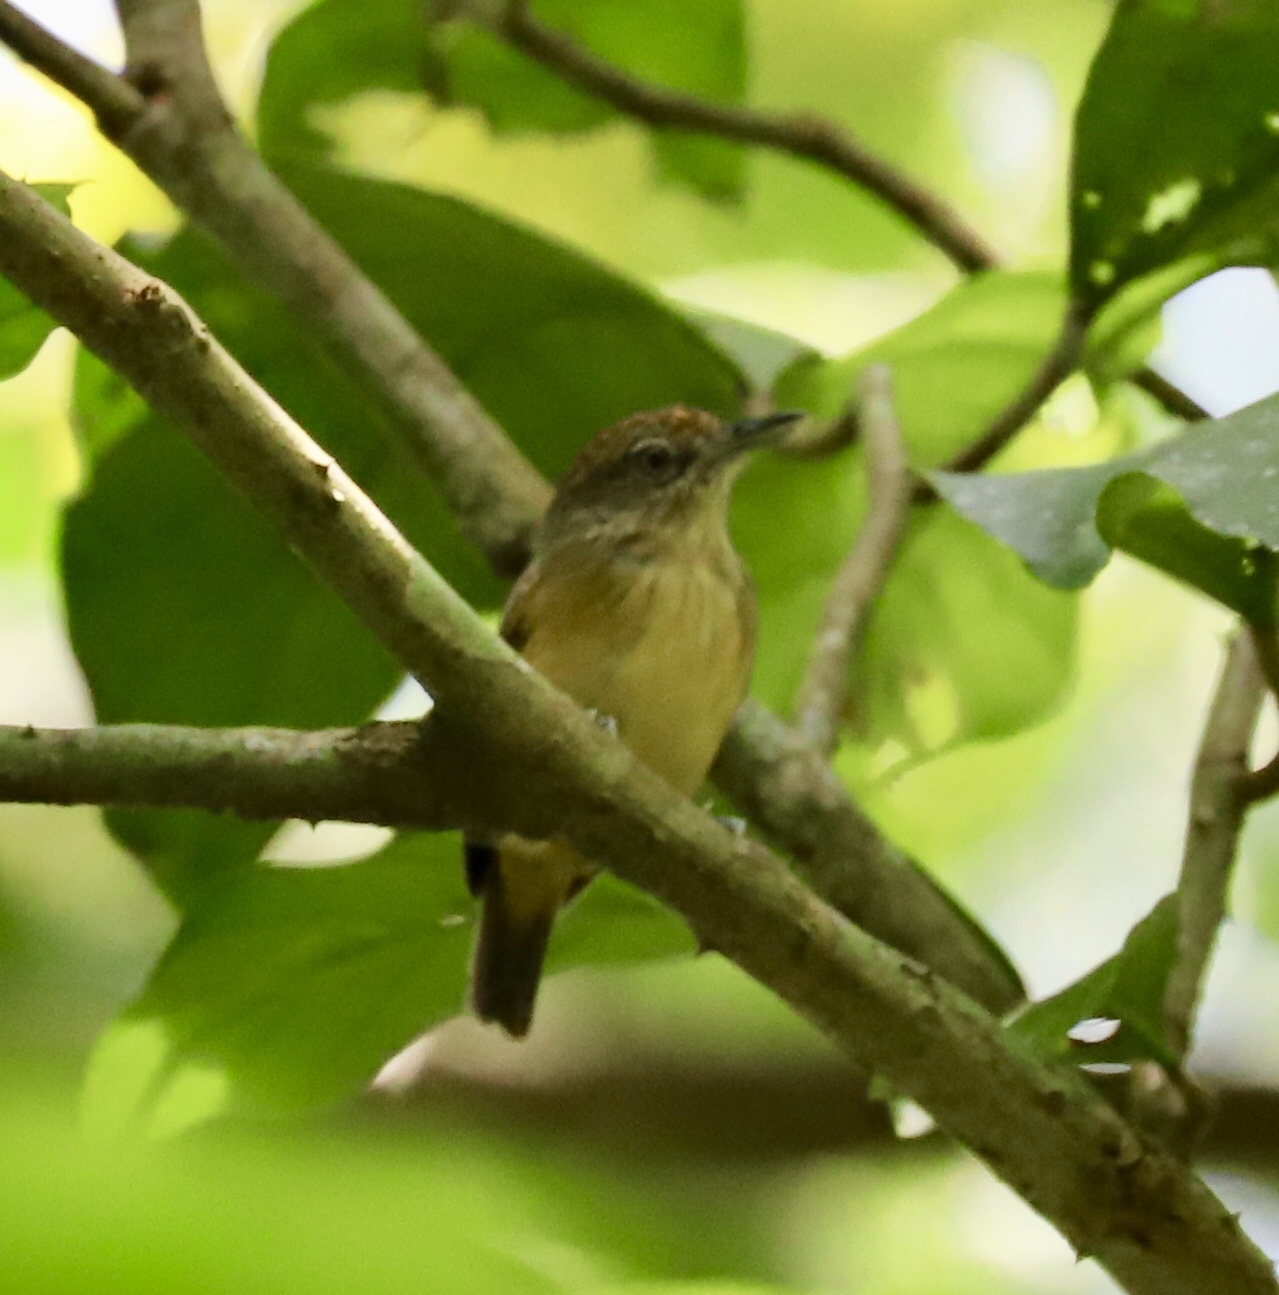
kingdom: Animalia
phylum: Chordata
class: Aves
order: Passeriformes
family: Thamnophilidae
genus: Dysithamnus
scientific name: Dysithamnus puncticeps
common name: Spot-crowned antvireo
